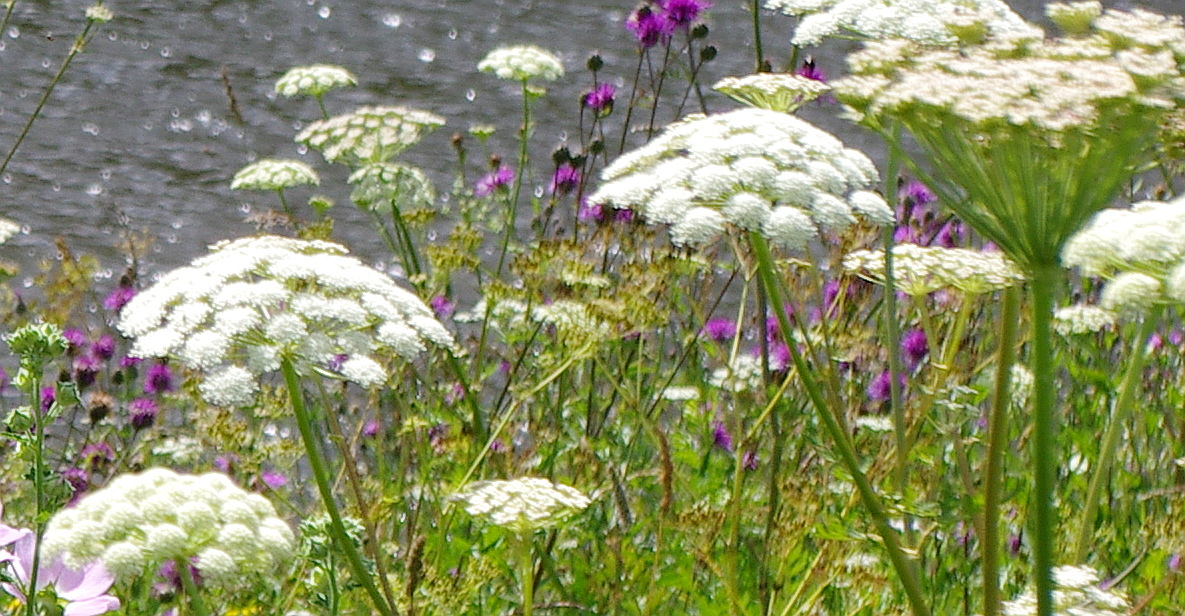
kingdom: Plantae
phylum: Tracheophyta
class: Magnoliopsida
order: Apiales
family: Apiaceae
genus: Seseli
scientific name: Seseli libanotis
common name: Mooncarrot
